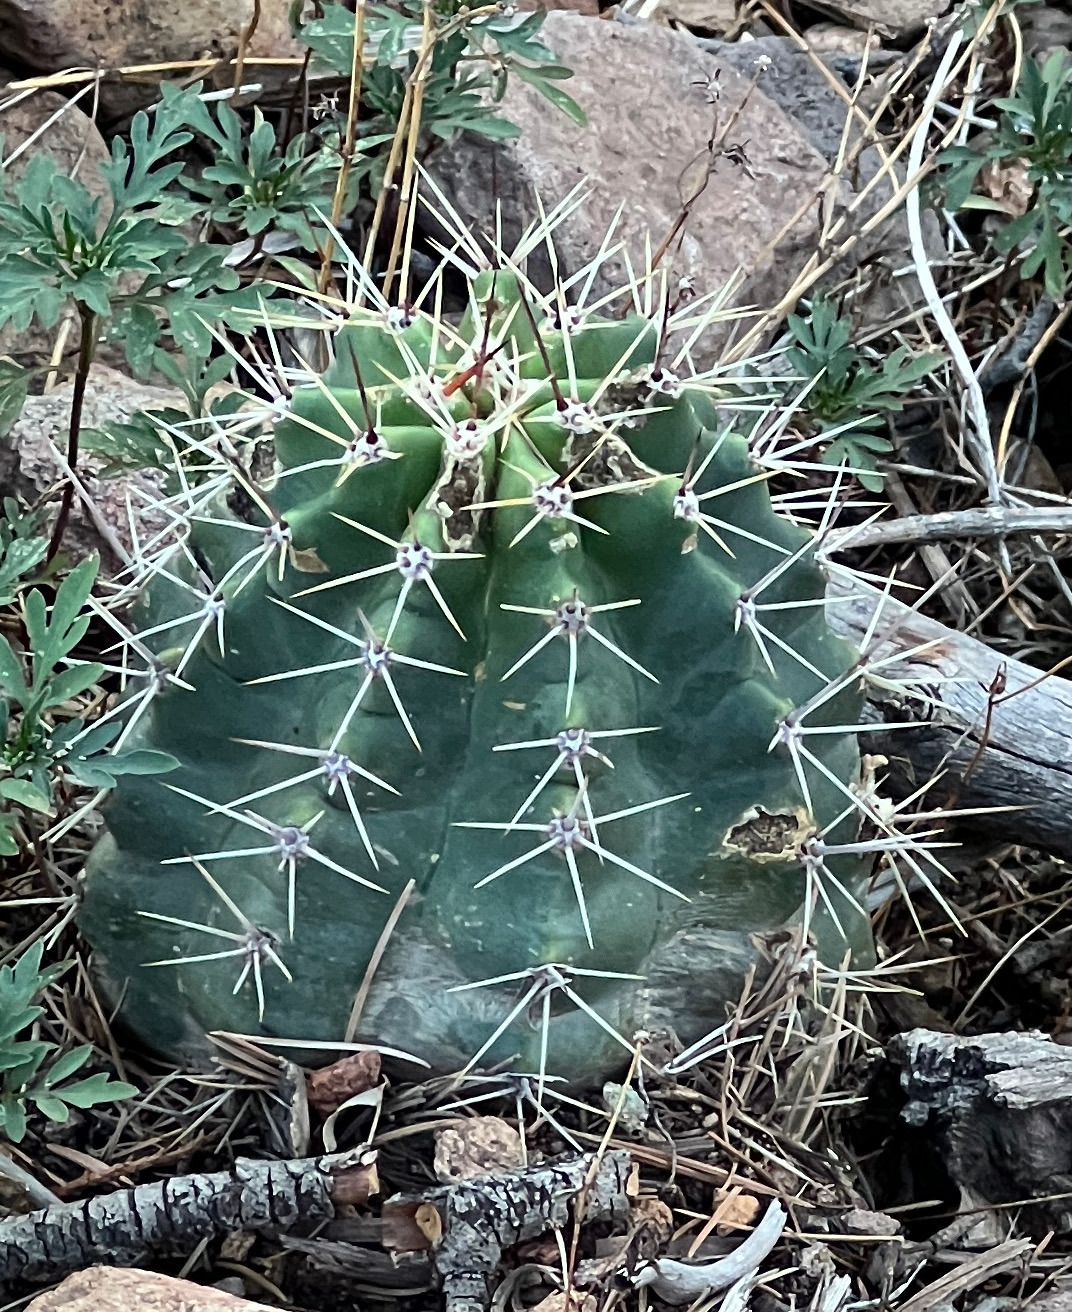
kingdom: Plantae
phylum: Tracheophyta
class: Magnoliopsida
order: Caryophyllales
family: Cactaceae
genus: Echinocereus
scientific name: Echinocereus coccineus
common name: Scarlet hedgehog cactus
